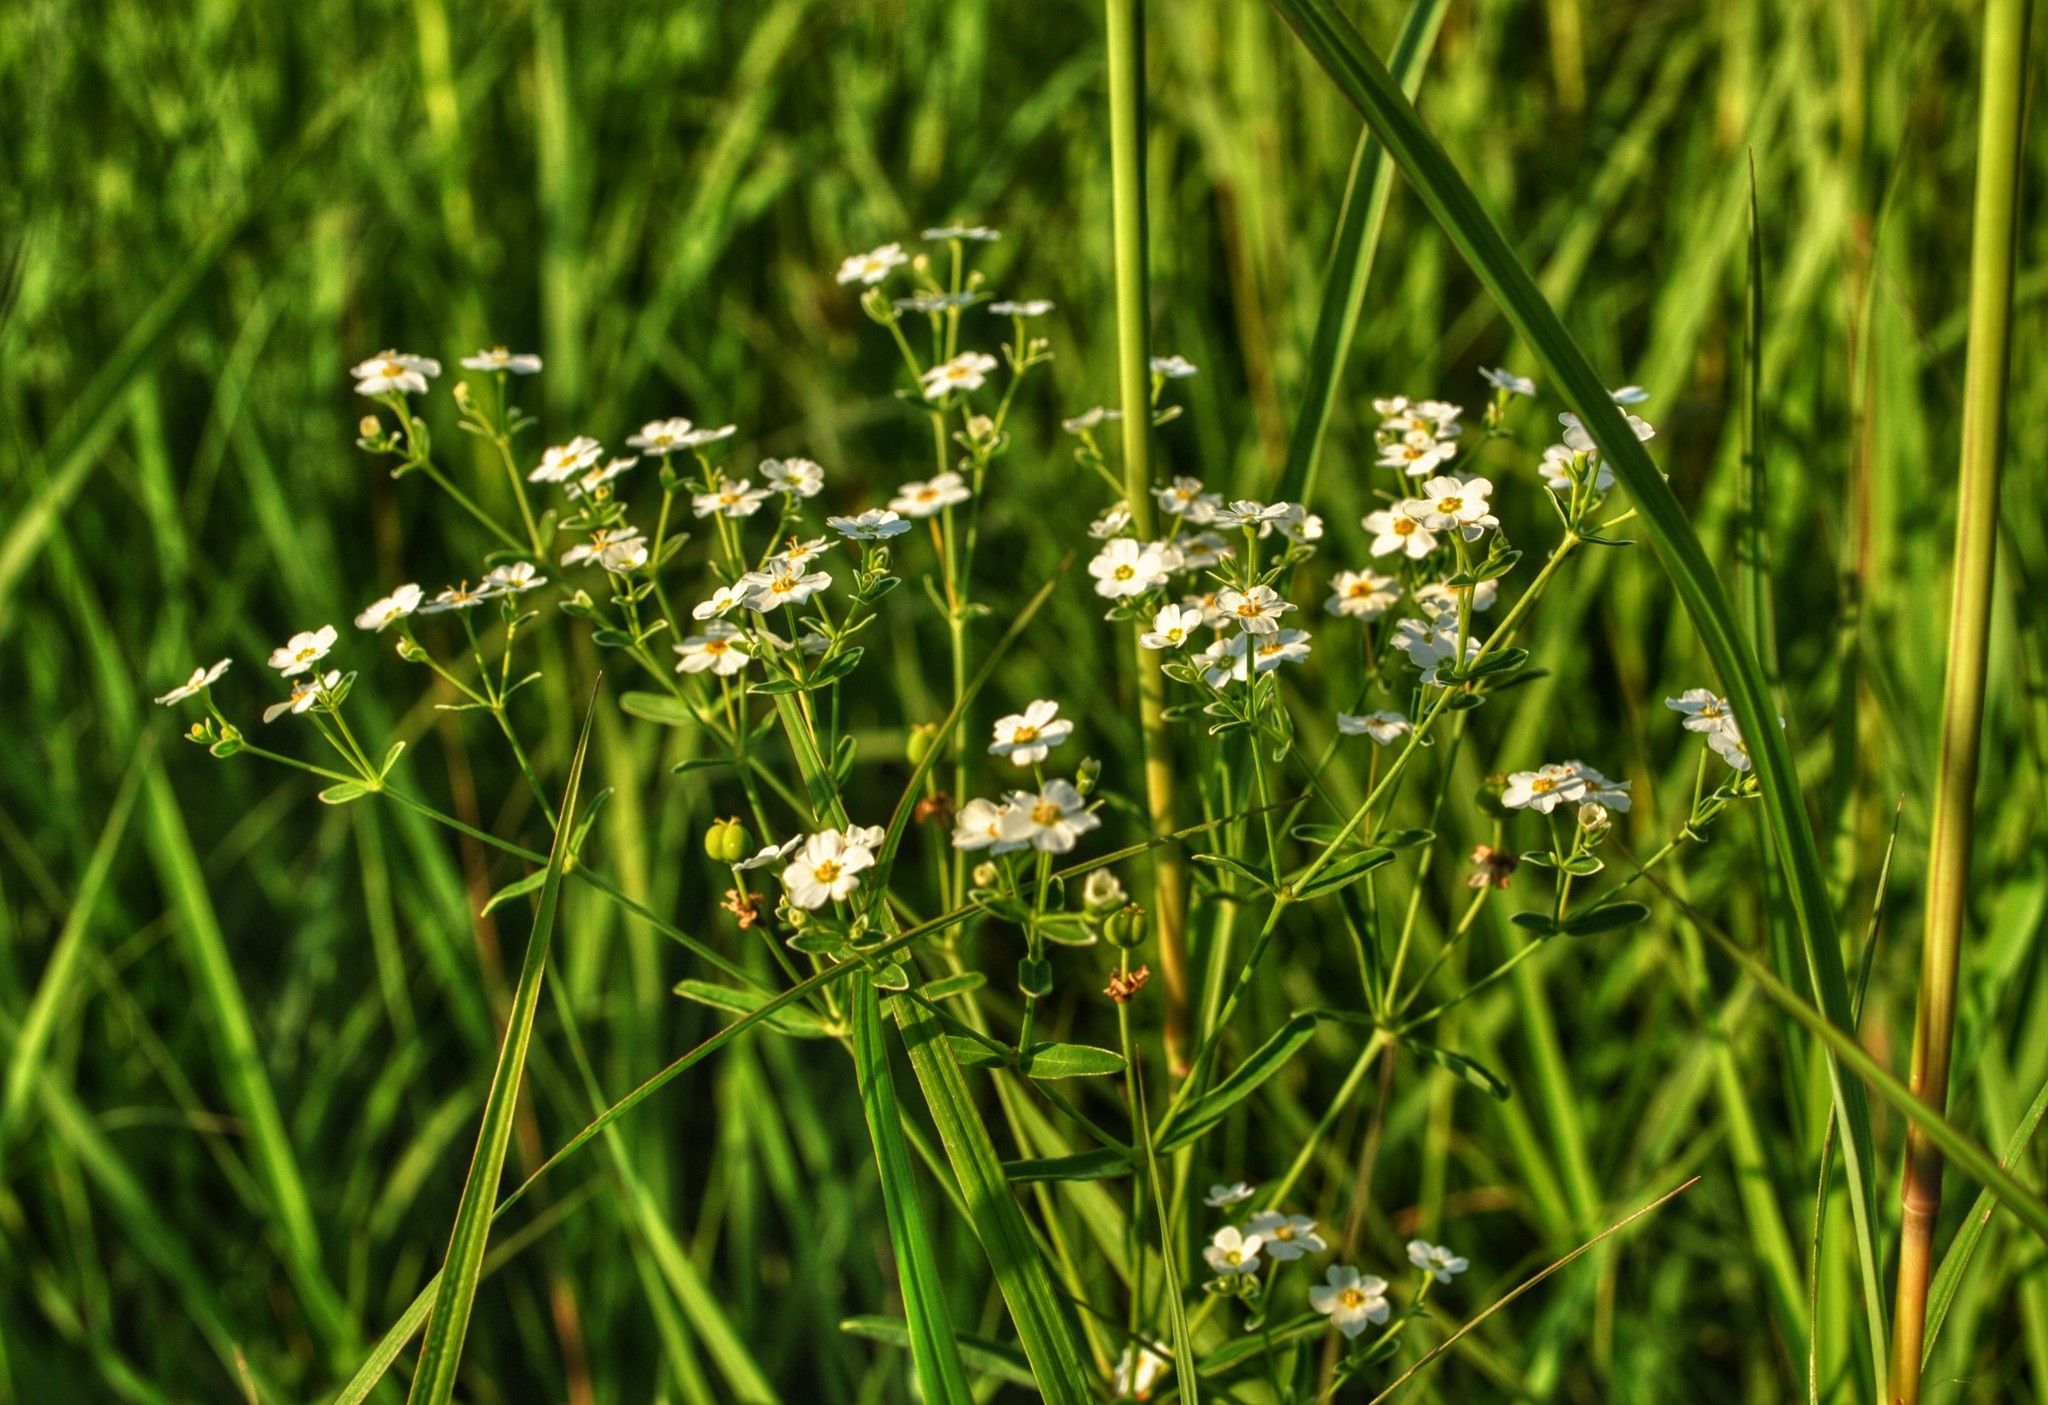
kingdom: Plantae
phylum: Tracheophyta
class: Magnoliopsida
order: Malpighiales
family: Euphorbiaceae
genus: Euphorbia
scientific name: Euphorbia corollata
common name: Flowering spurge
